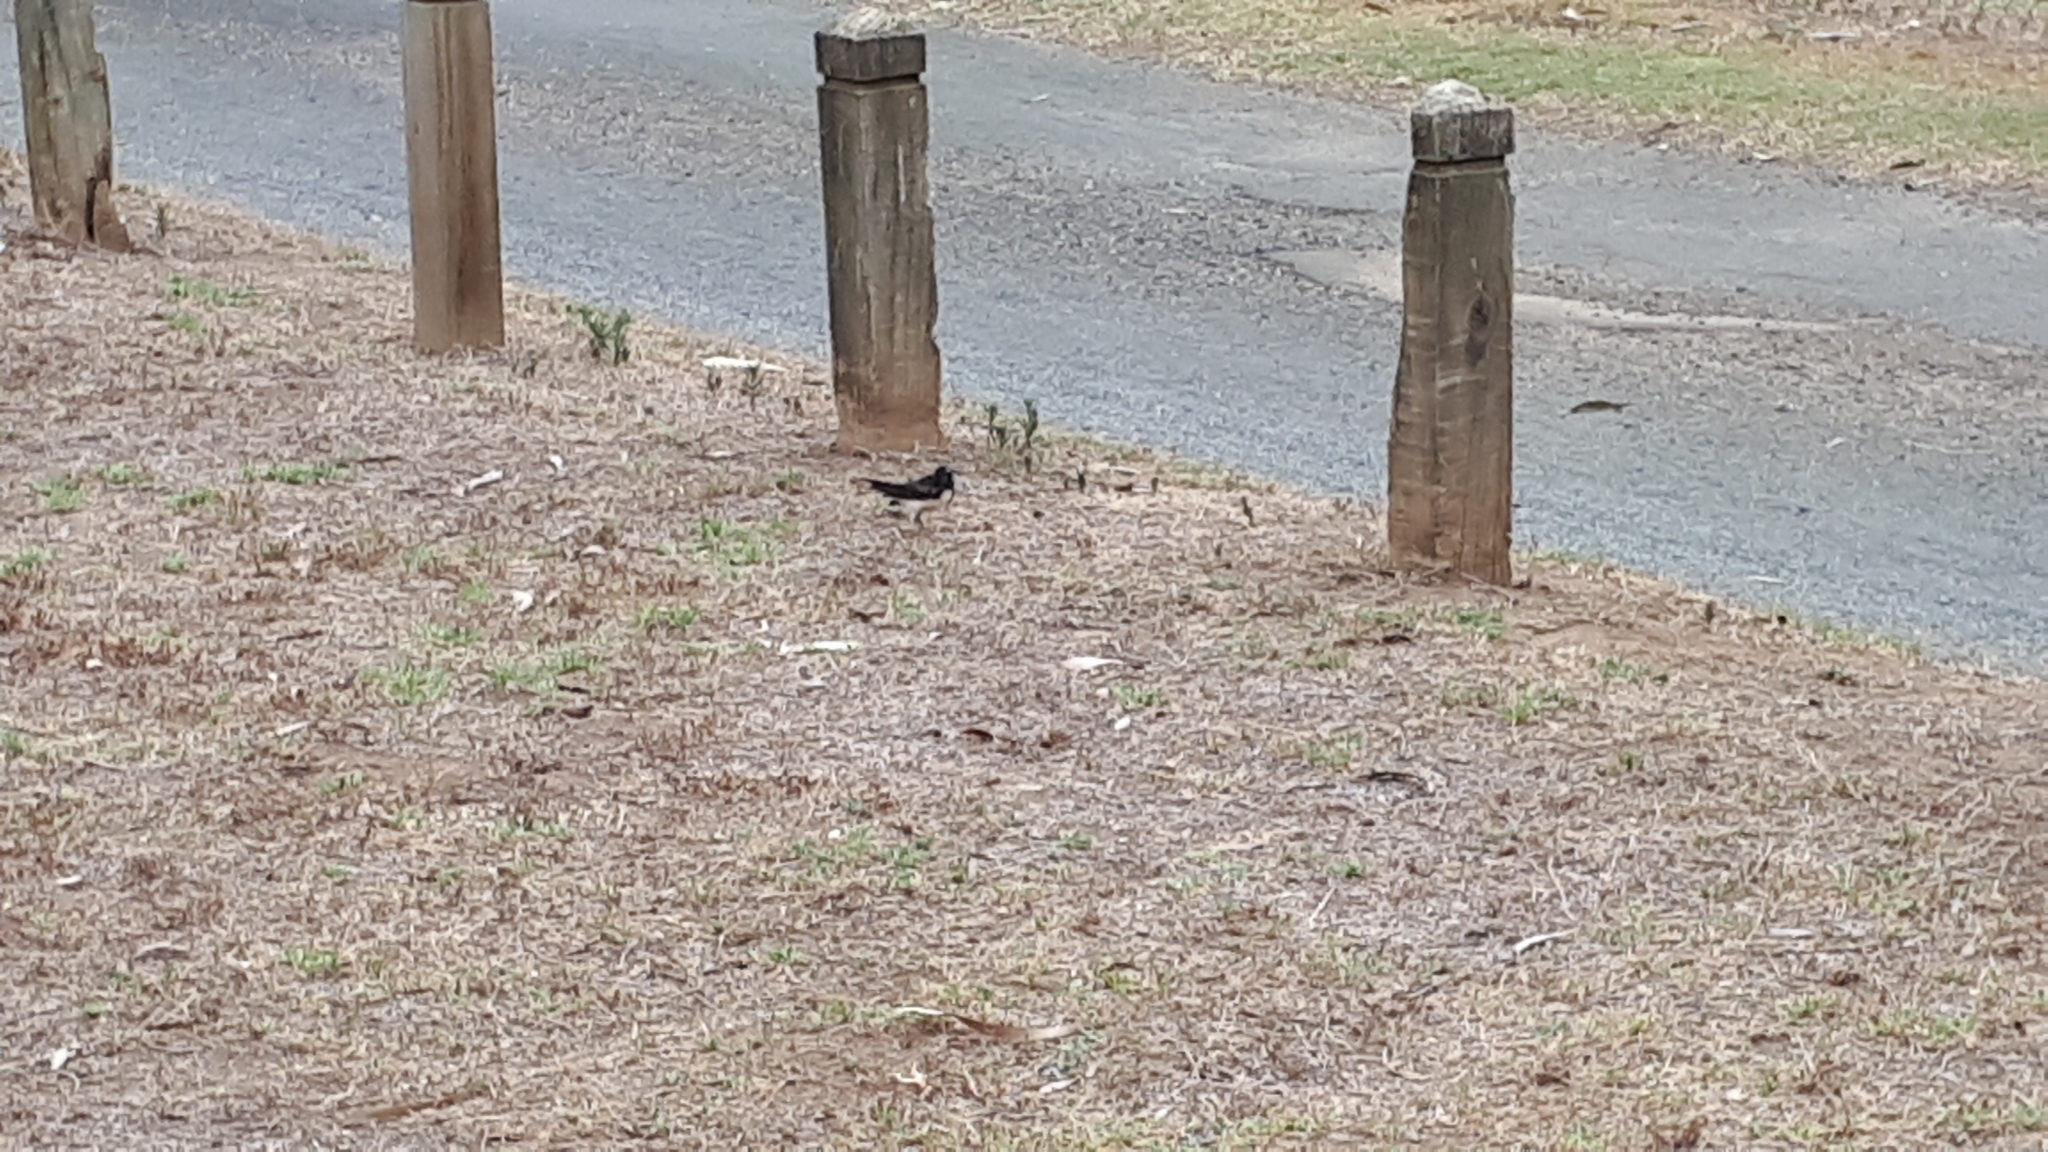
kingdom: Animalia
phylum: Chordata
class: Aves
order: Passeriformes
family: Rhipiduridae
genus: Rhipidura
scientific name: Rhipidura leucophrys
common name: Willie wagtail
